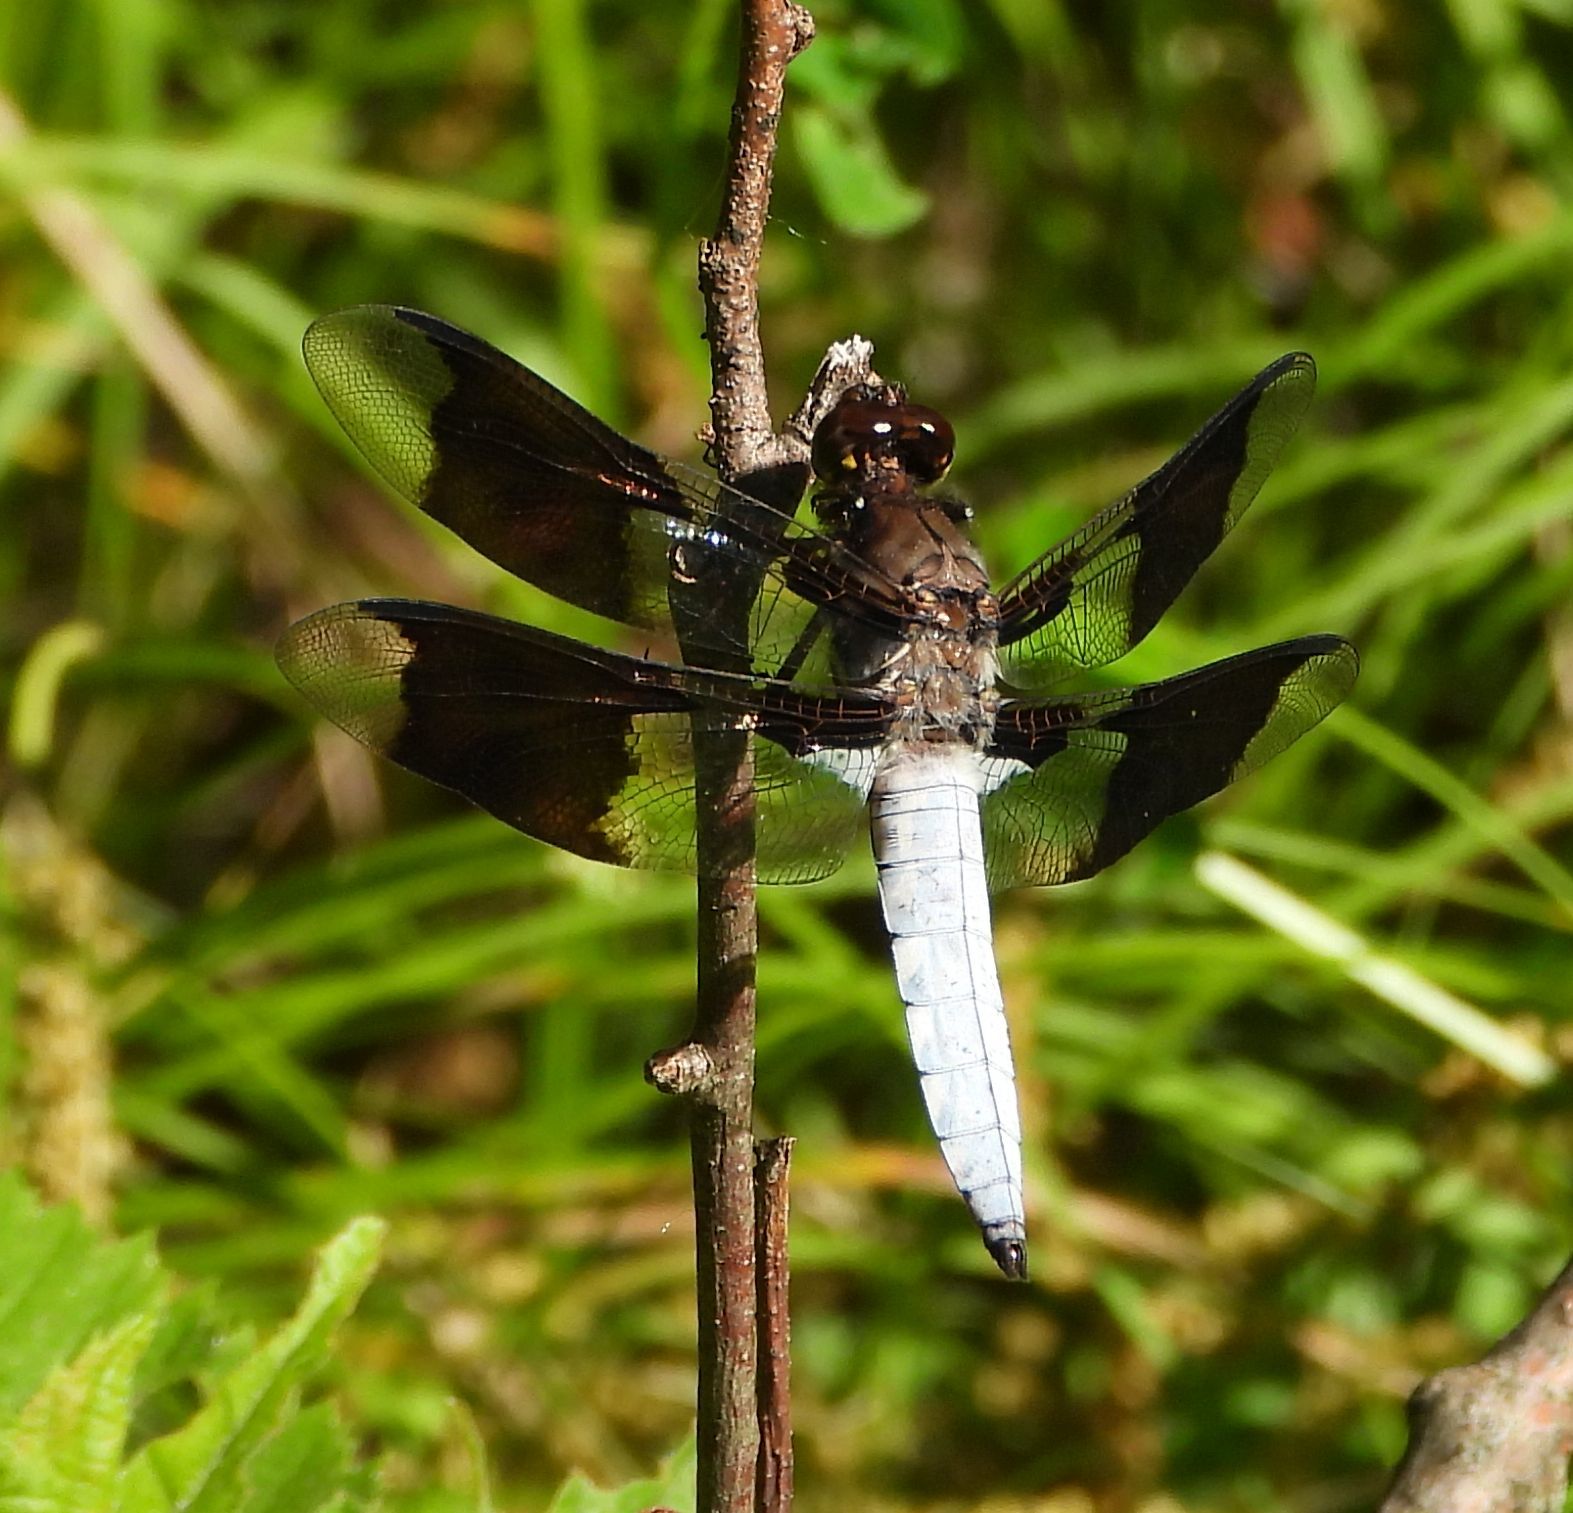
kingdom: Animalia
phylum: Arthropoda
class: Insecta
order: Odonata
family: Libellulidae
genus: Plathemis
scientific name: Plathemis lydia
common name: Common whitetail
